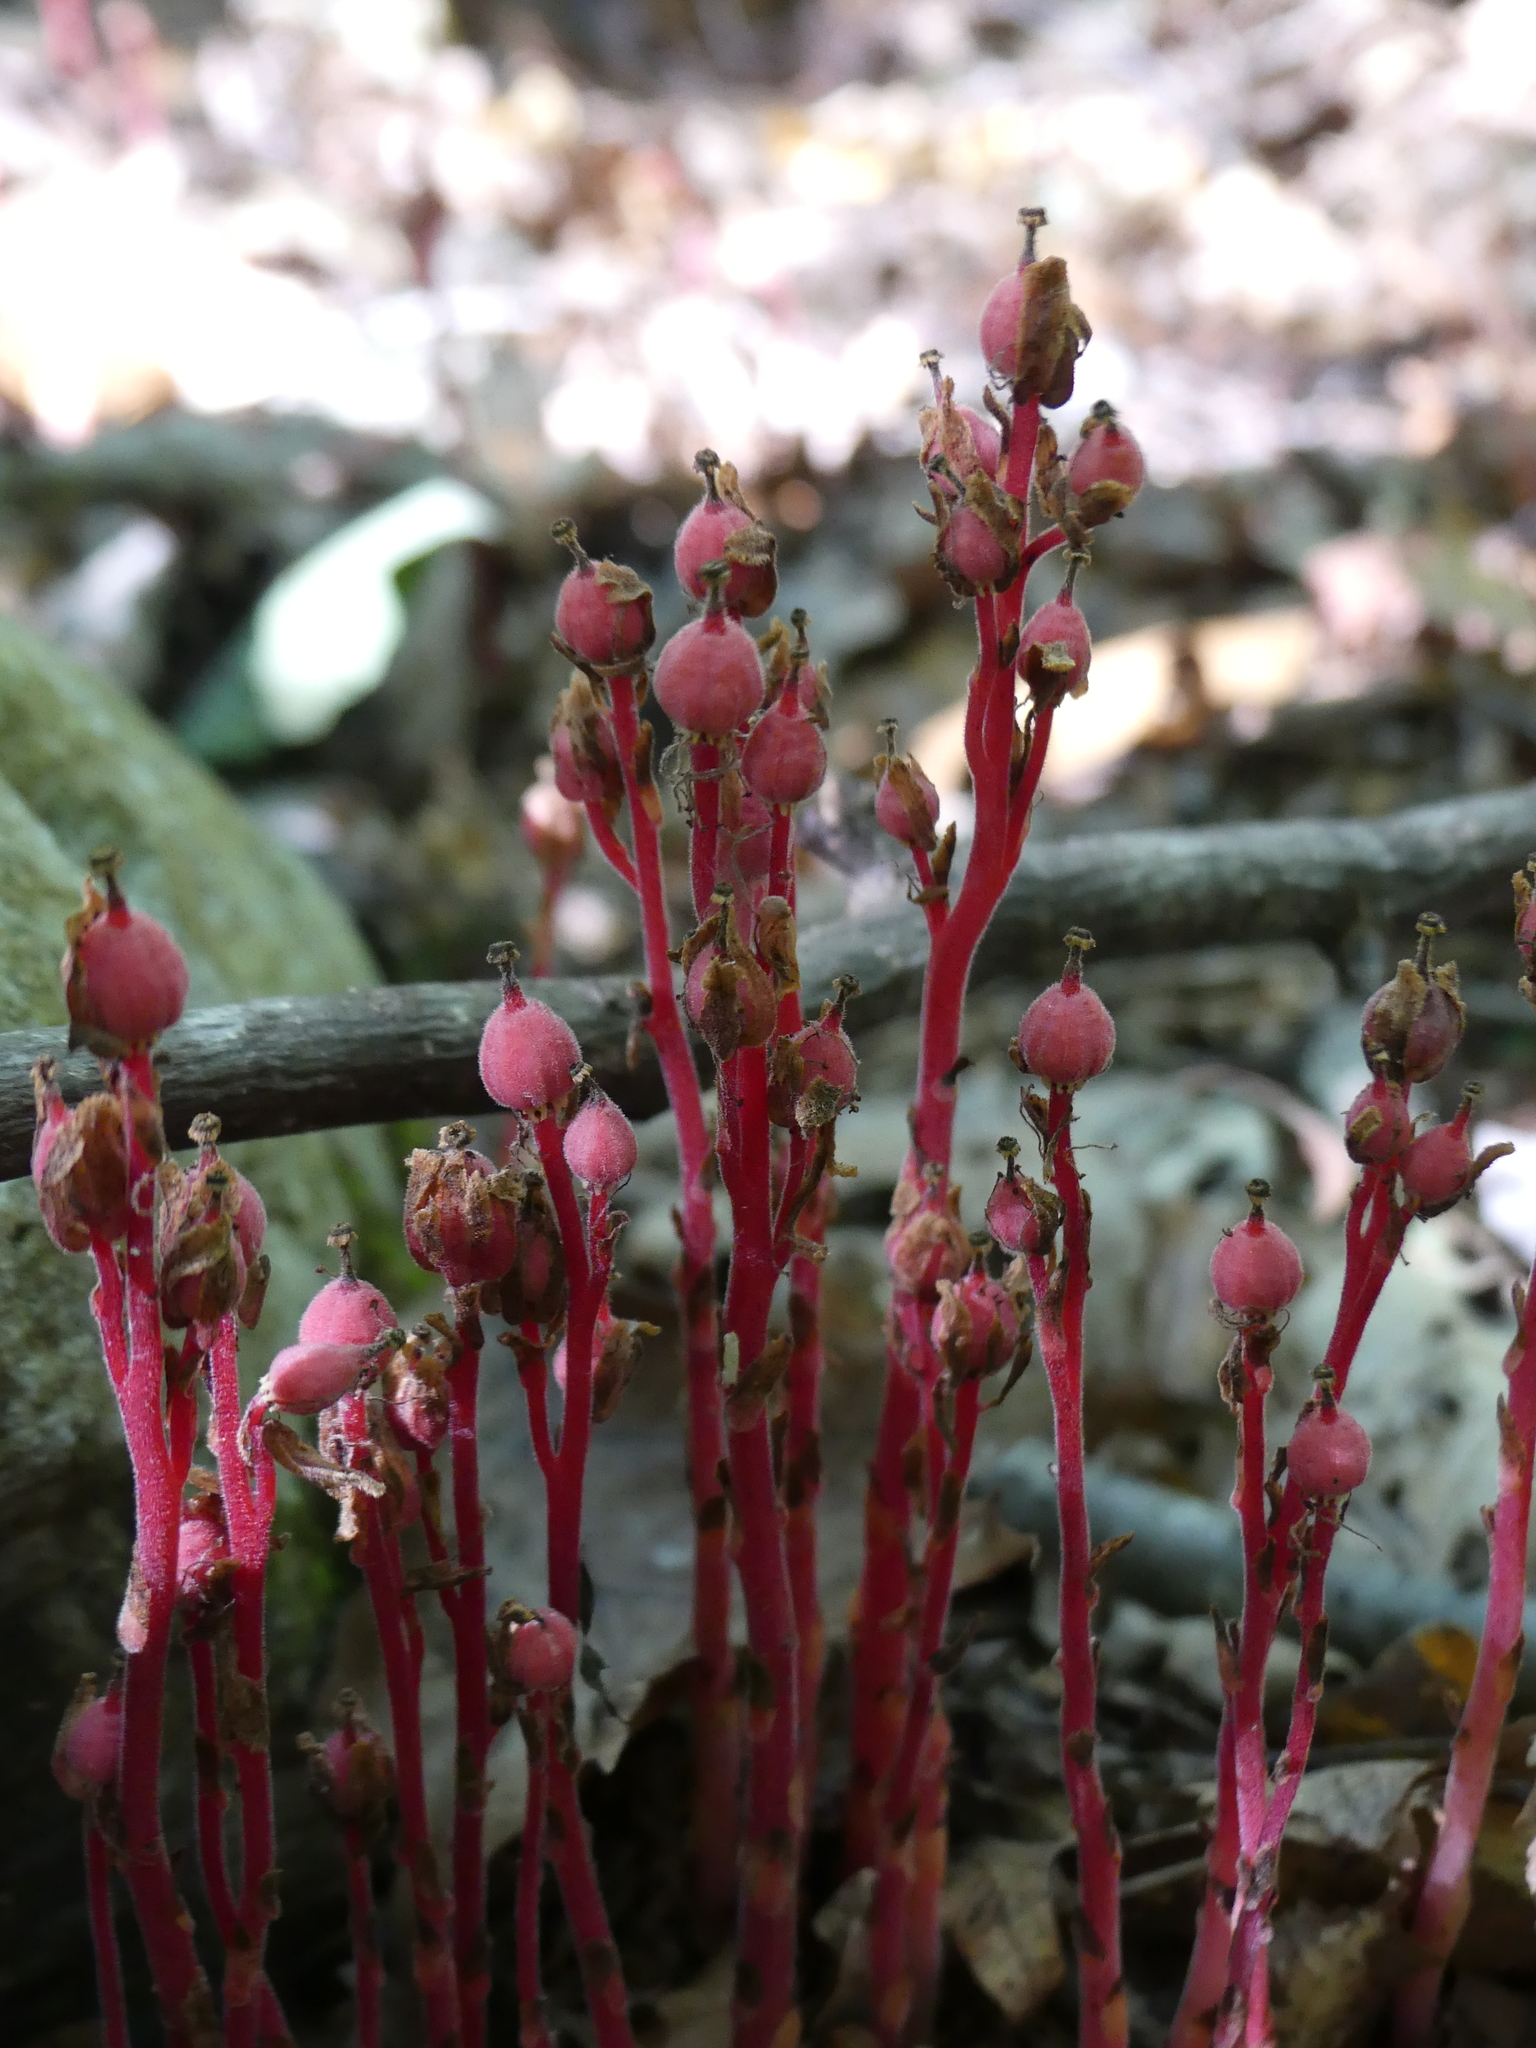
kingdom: Plantae
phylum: Tracheophyta
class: Magnoliopsida
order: Ericales
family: Ericaceae
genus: Hypopitys
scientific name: Hypopitys monotropa
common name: Yellow bird's-nest
